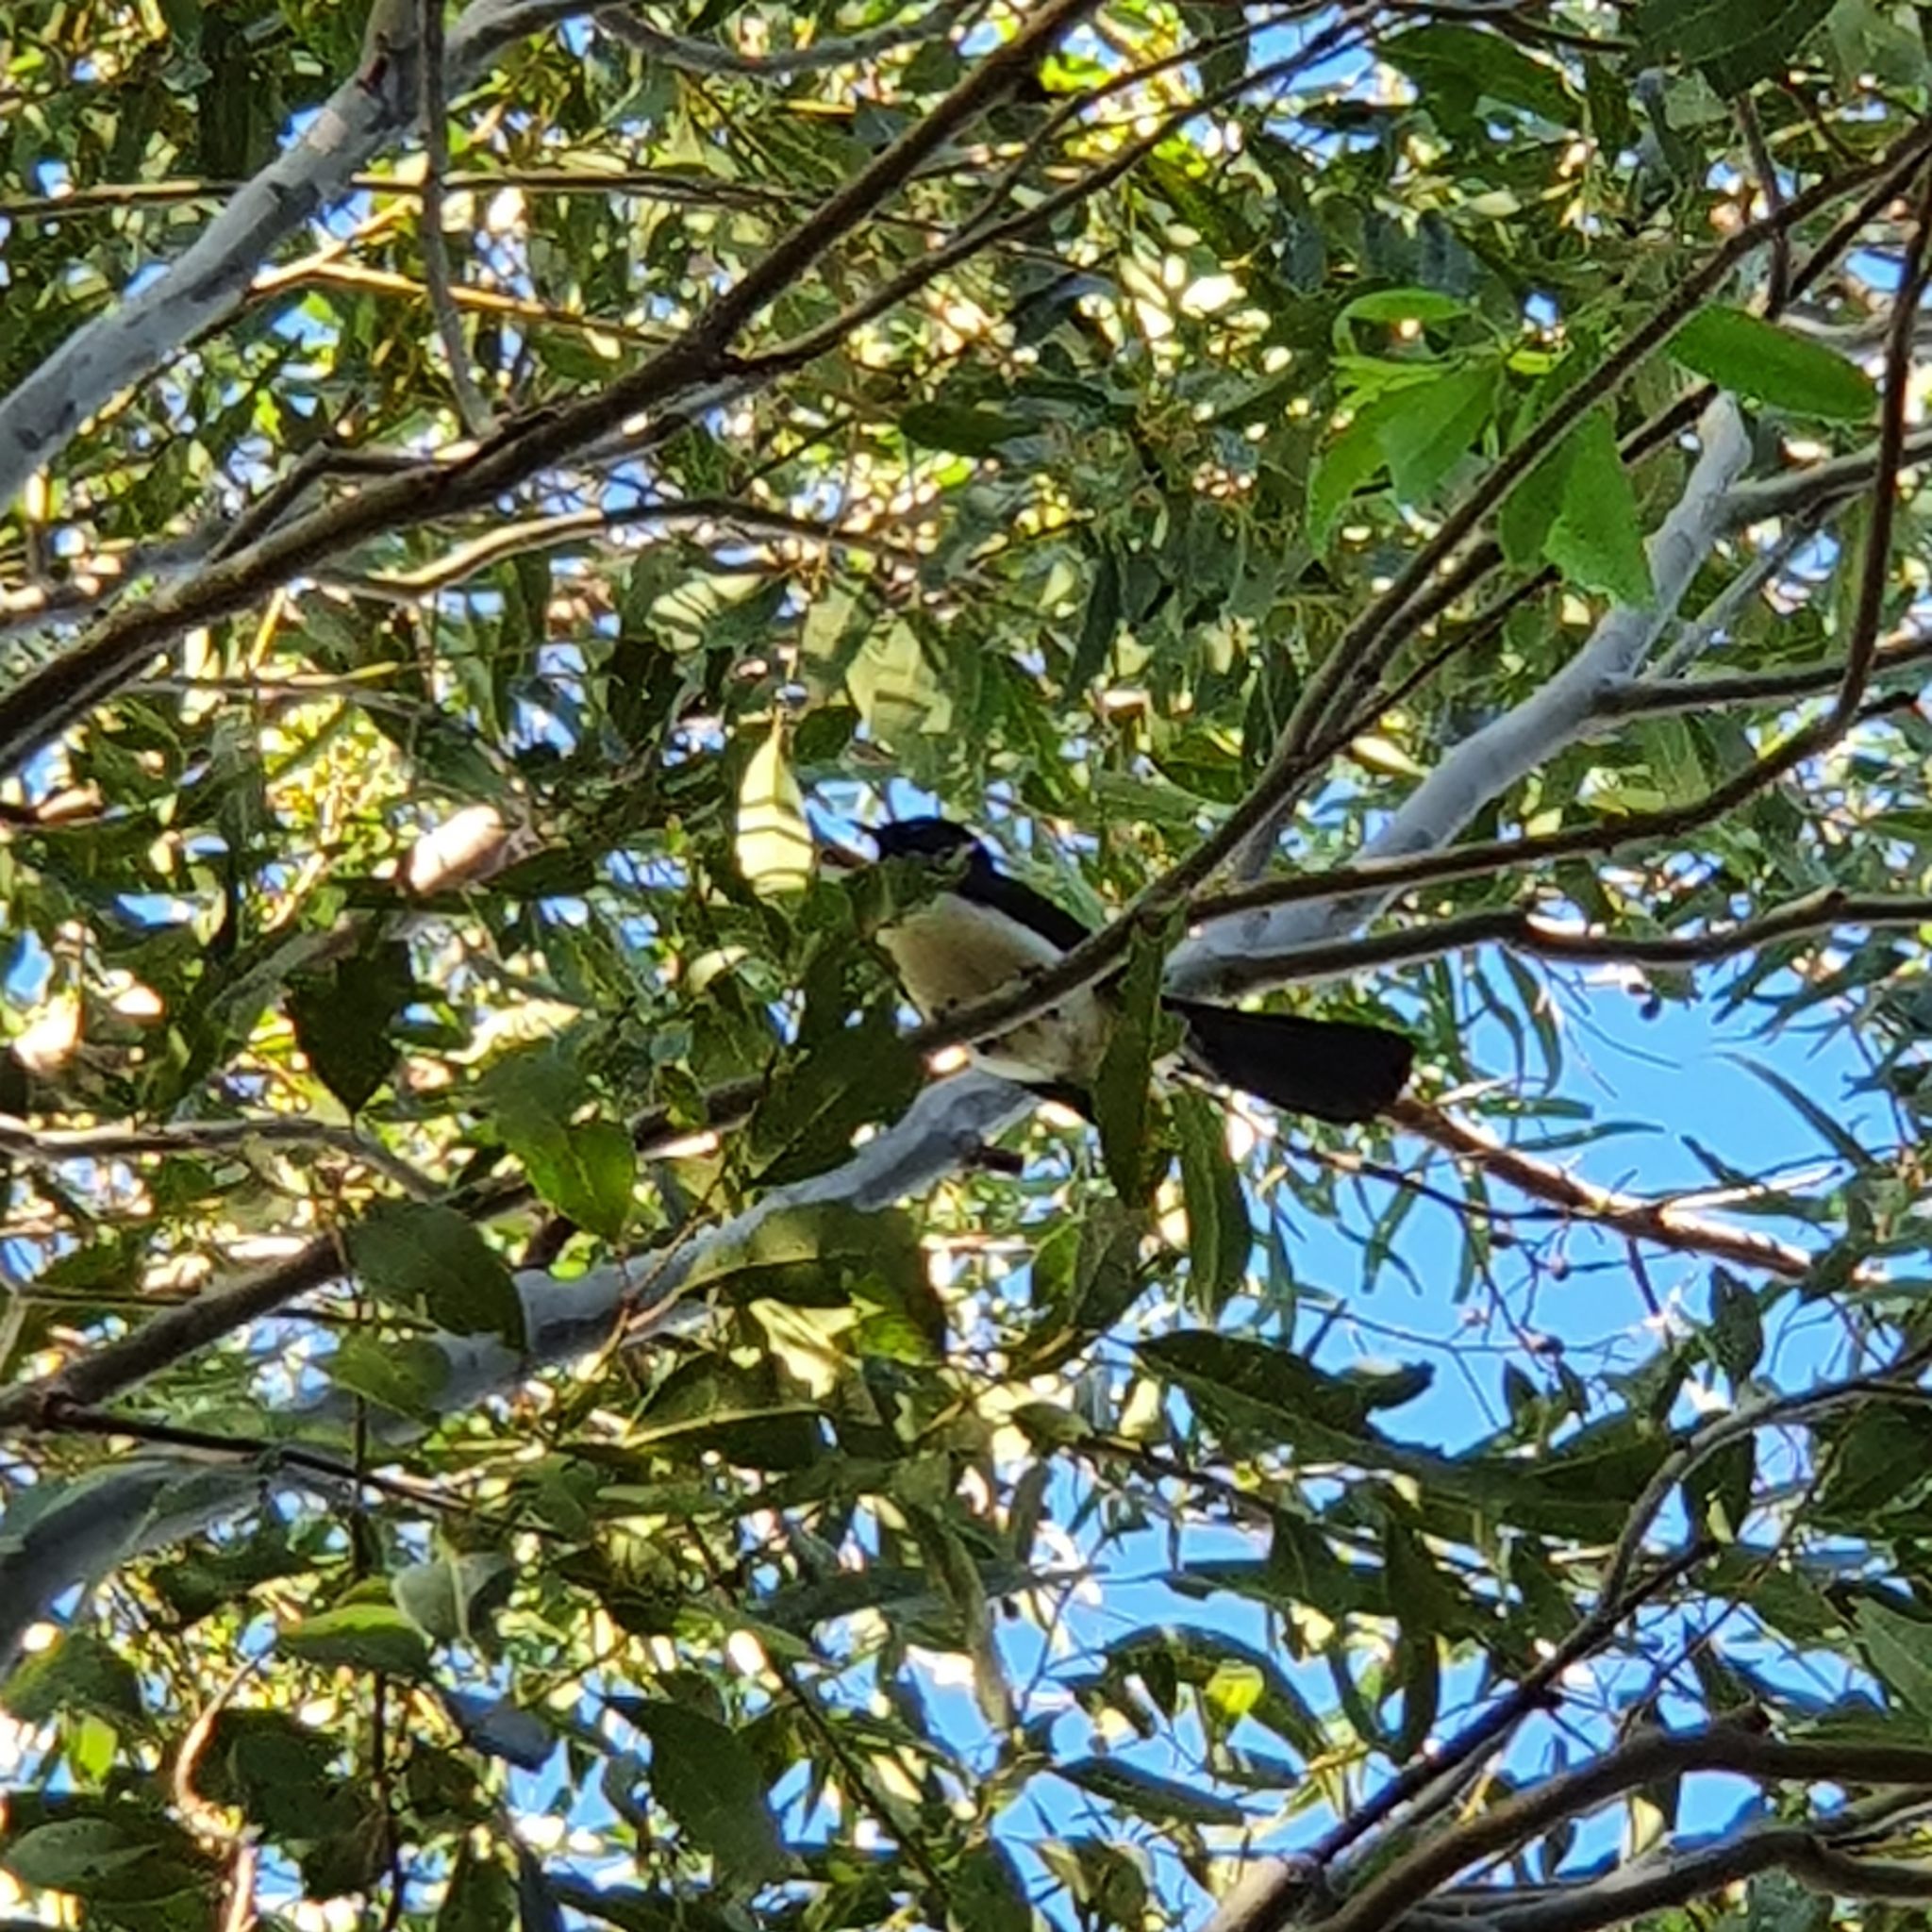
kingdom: Animalia
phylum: Chordata
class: Aves
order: Passeriformes
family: Rhipiduridae
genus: Rhipidura
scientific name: Rhipidura leucophrys
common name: Willie wagtail
